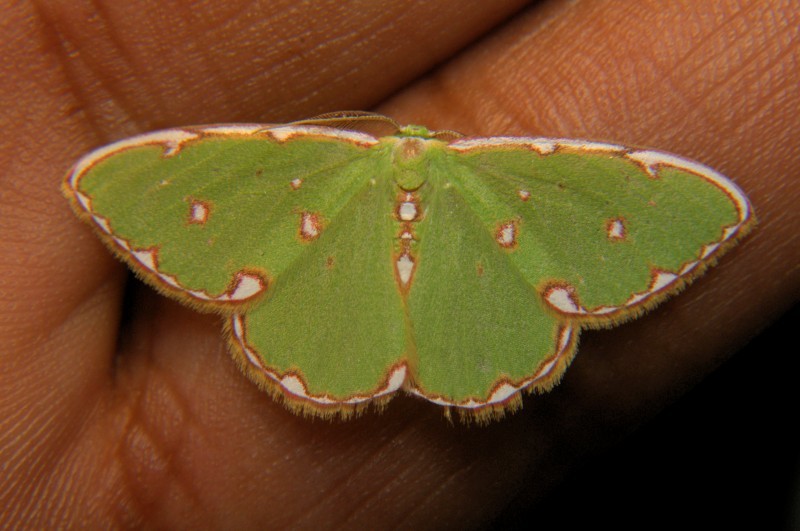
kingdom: Animalia
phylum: Arthropoda
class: Insecta
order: Lepidoptera
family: Geometridae
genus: Comostolodes
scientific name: Comostolodes
